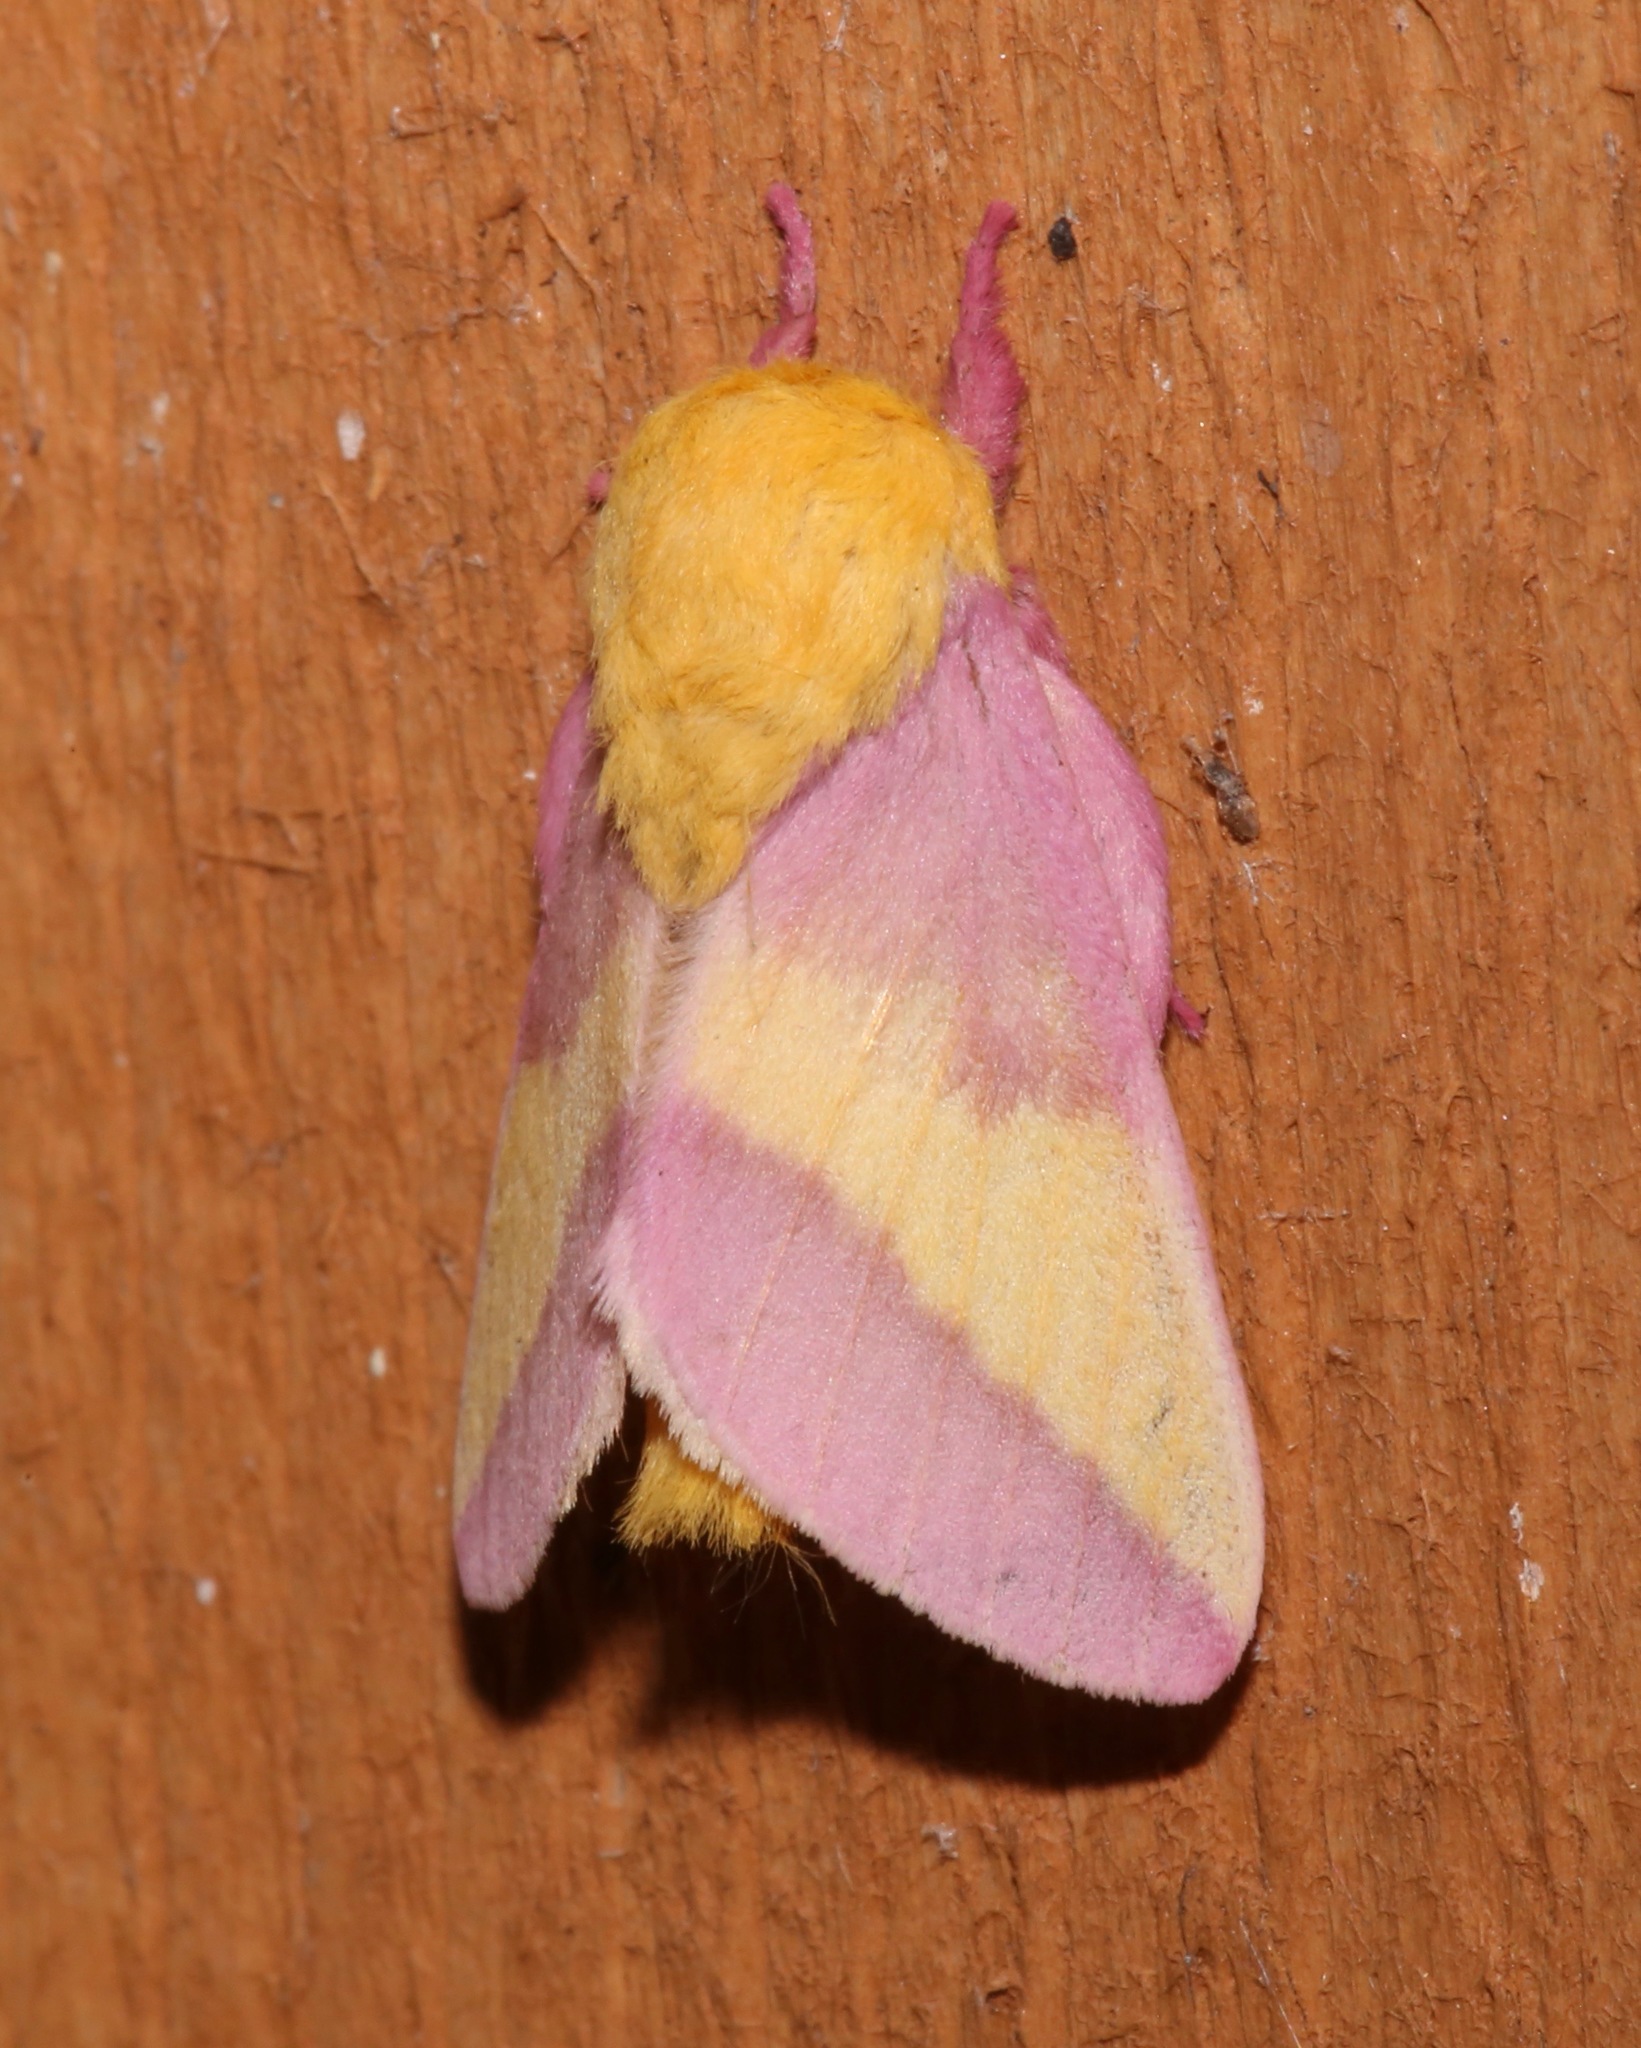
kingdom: Animalia
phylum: Arthropoda
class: Insecta
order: Lepidoptera
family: Saturniidae
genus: Dryocampa
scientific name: Dryocampa rubicunda
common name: Rosy maple moth
